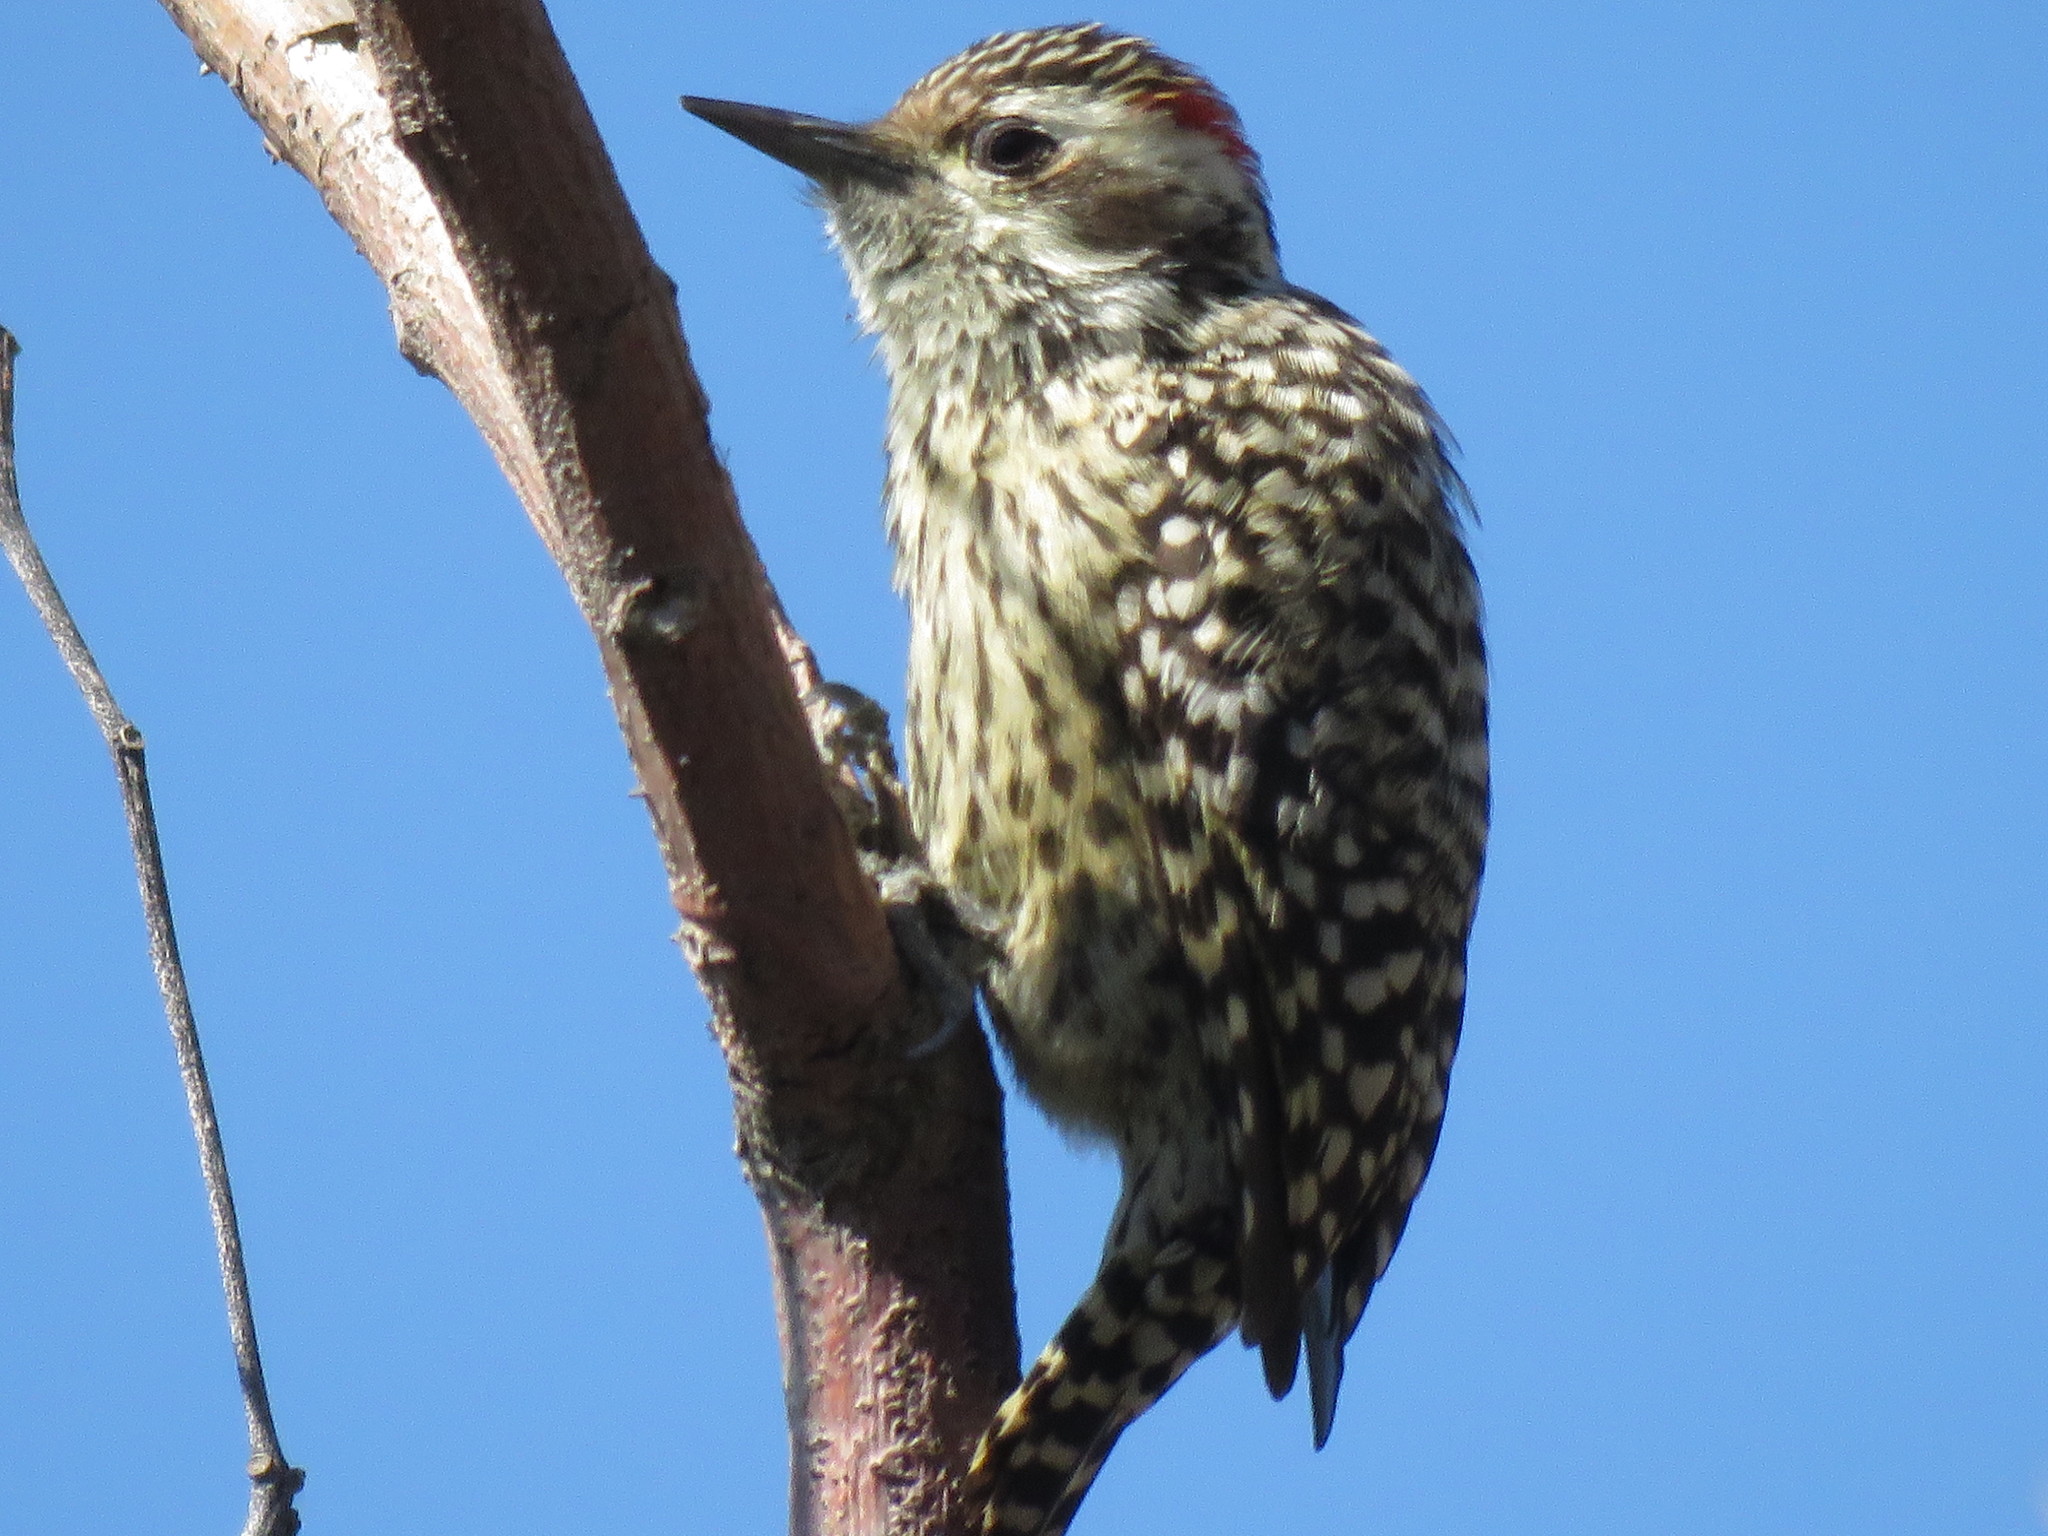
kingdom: Animalia
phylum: Chordata
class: Aves
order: Piciformes
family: Picidae
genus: Veniliornis
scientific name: Veniliornis mixtus
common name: Checkered woodpecker
